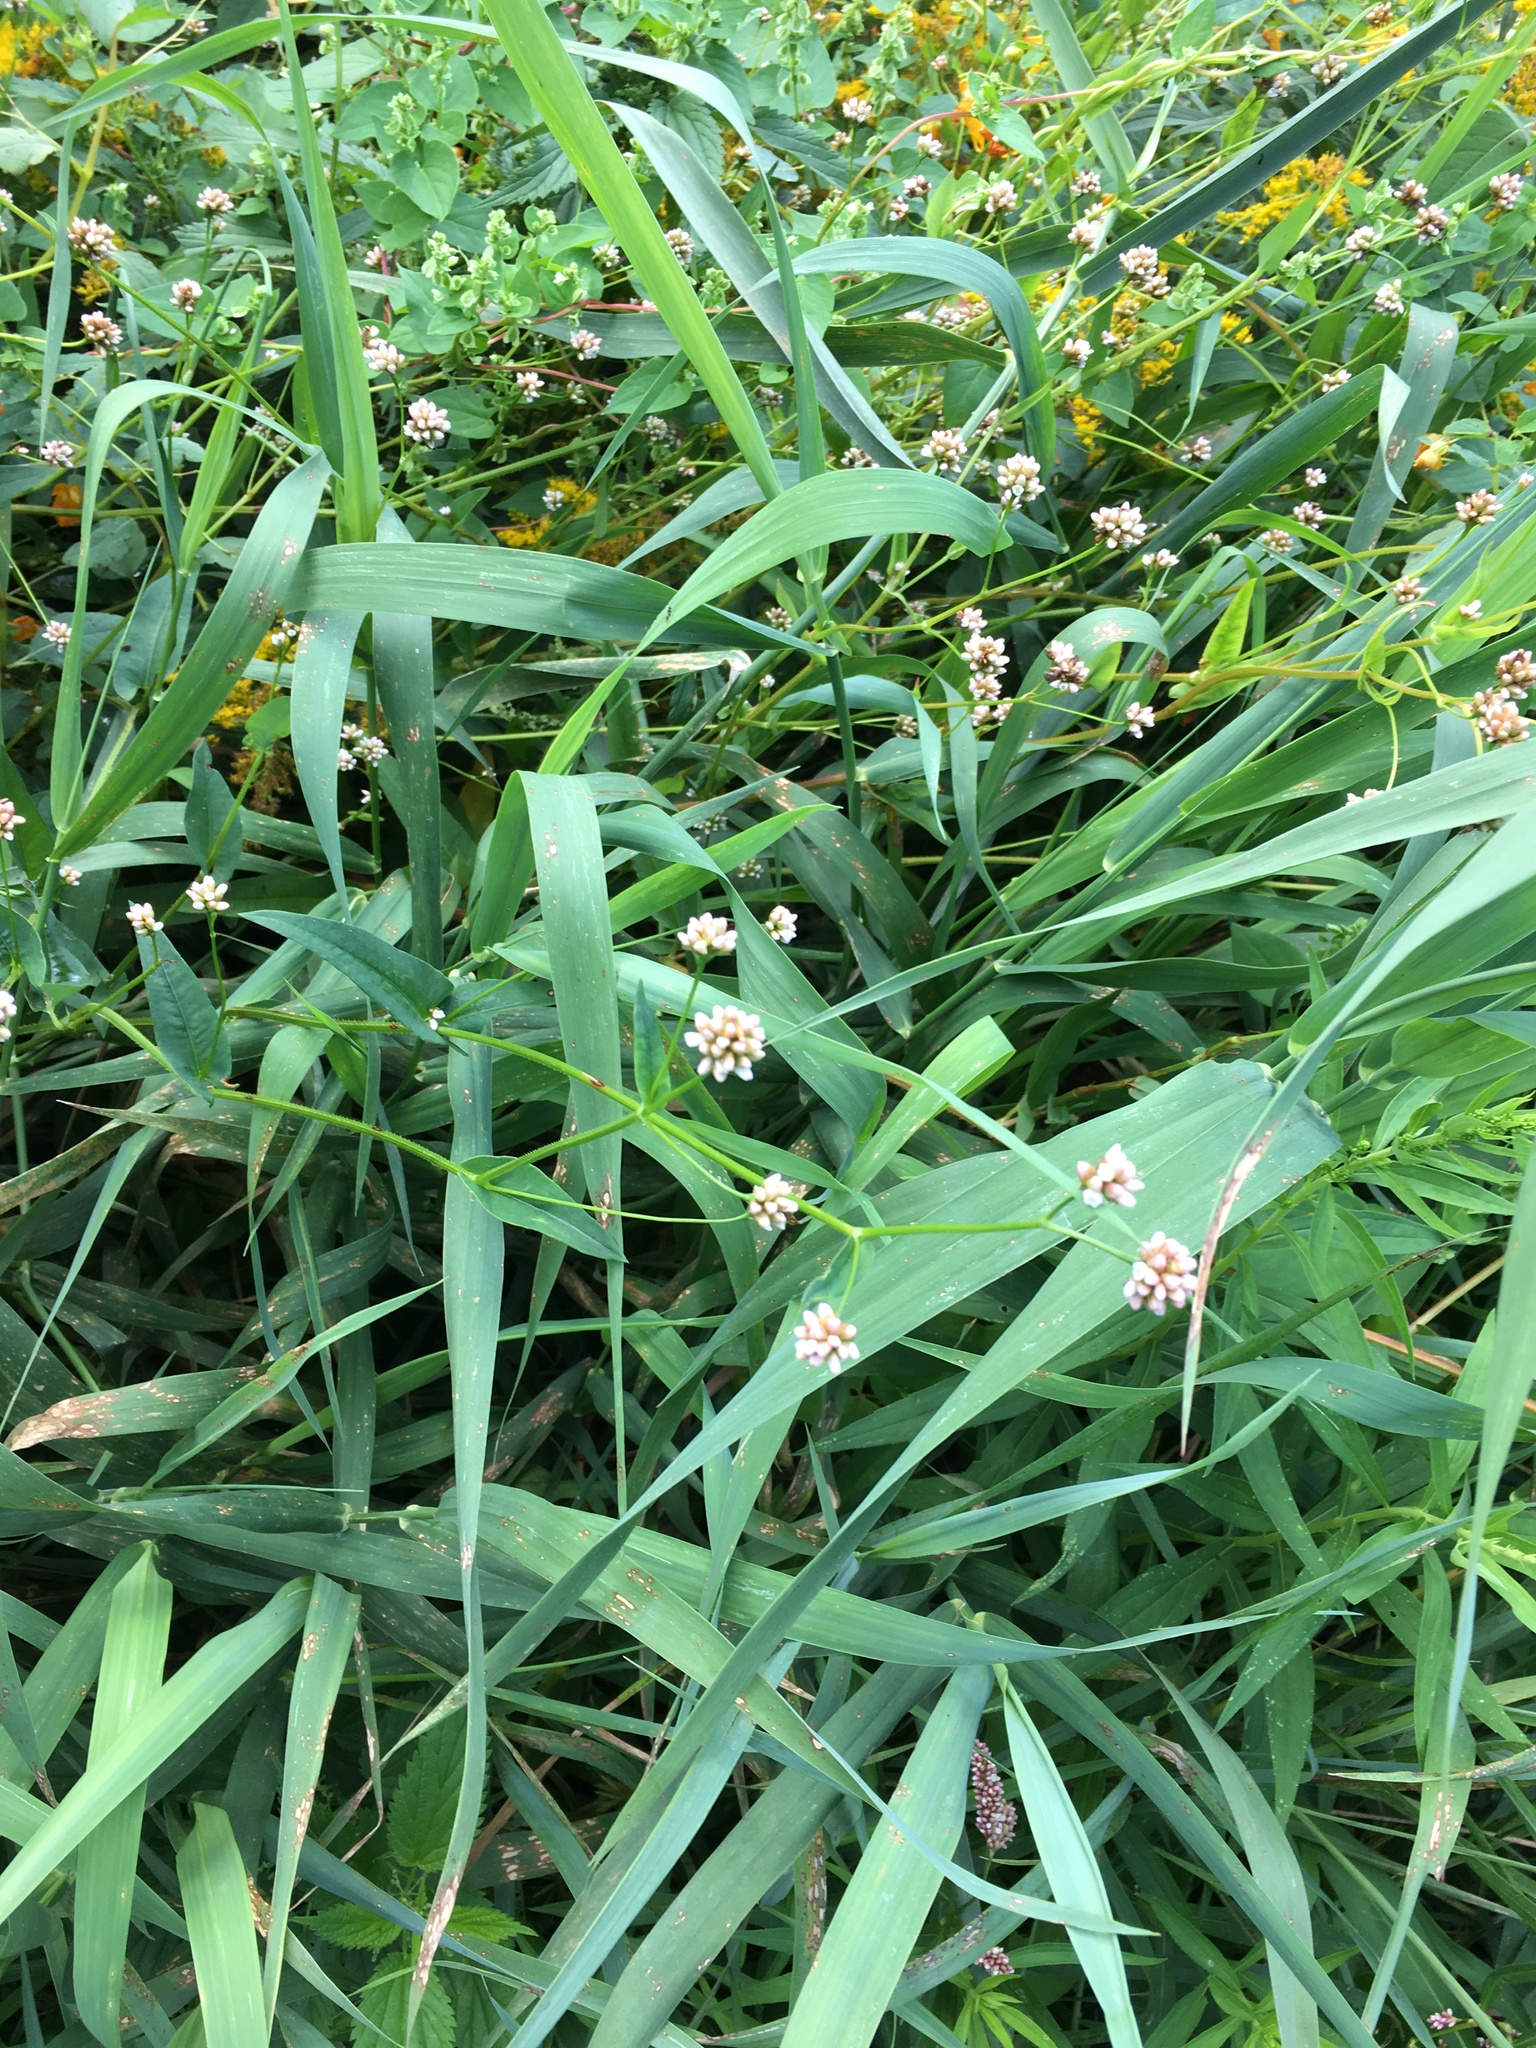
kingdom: Plantae
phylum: Tracheophyta
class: Magnoliopsida
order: Caryophyllales
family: Polygonaceae
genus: Persicaria
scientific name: Persicaria sagittata
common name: American tearthumb
